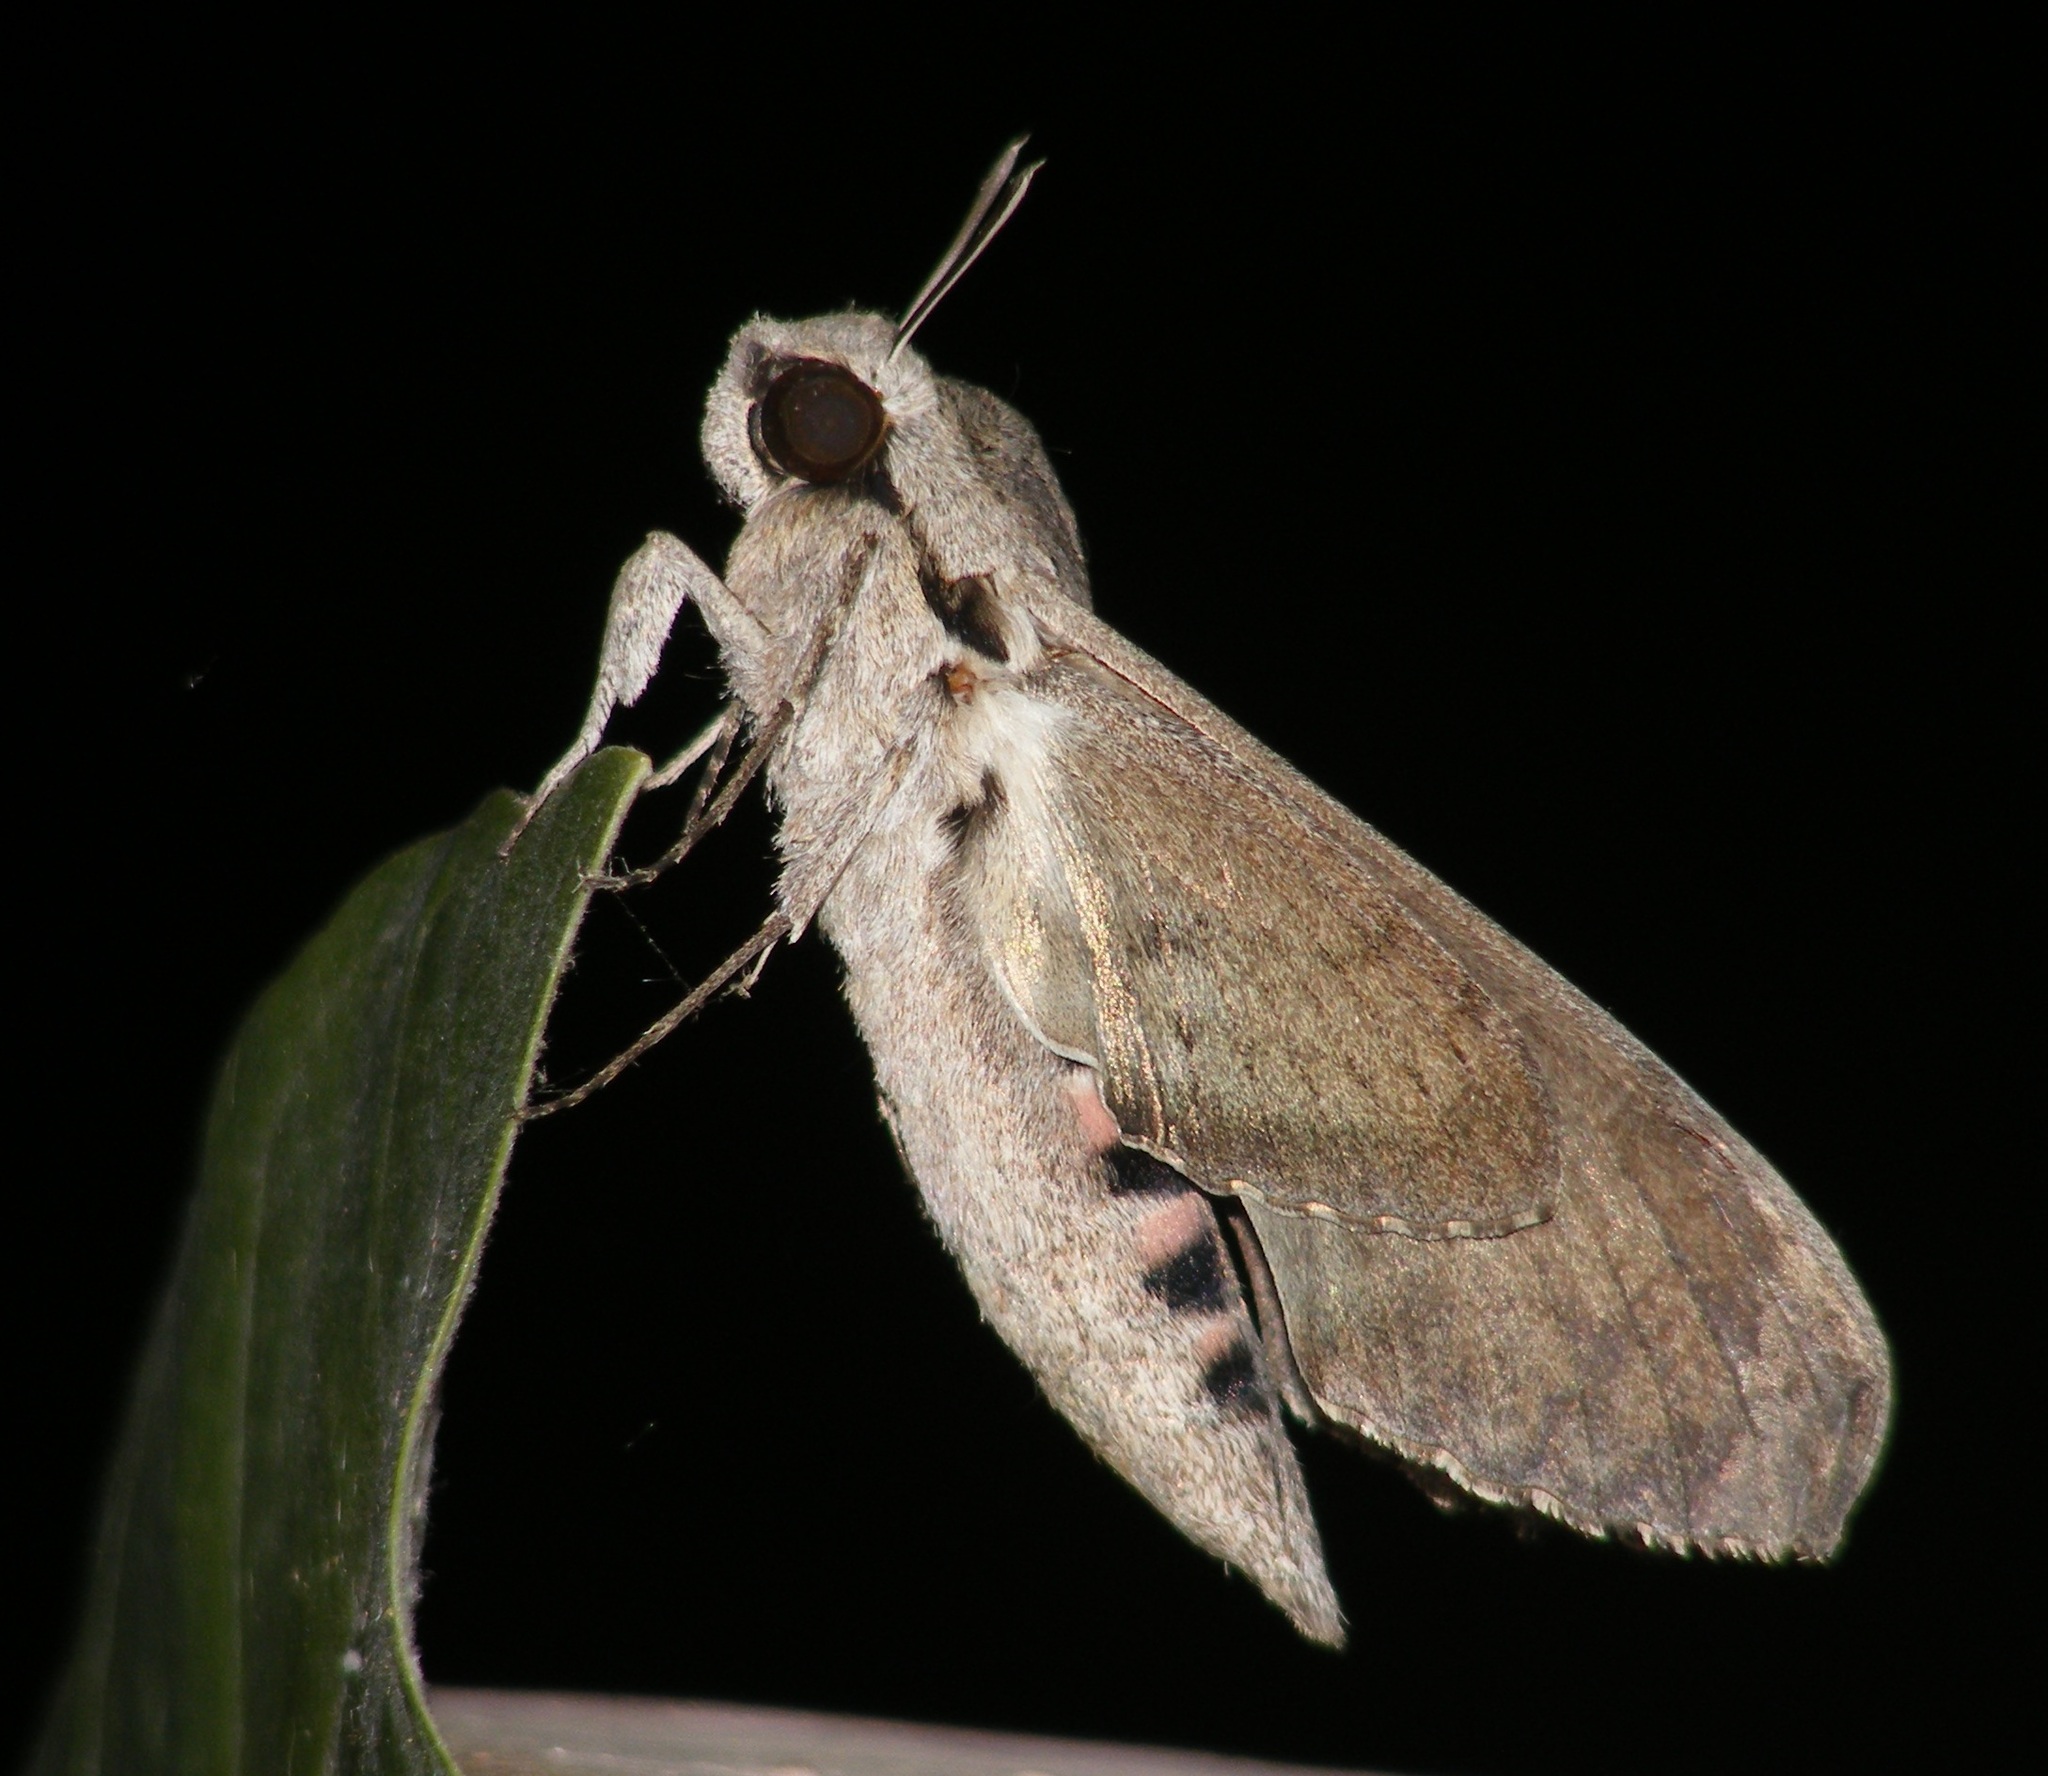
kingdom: Animalia
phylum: Arthropoda
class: Insecta
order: Lepidoptera
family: Sphingidae
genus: Agrius
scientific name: Agrius convolvuli
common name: Convolvulus hawkmoth
